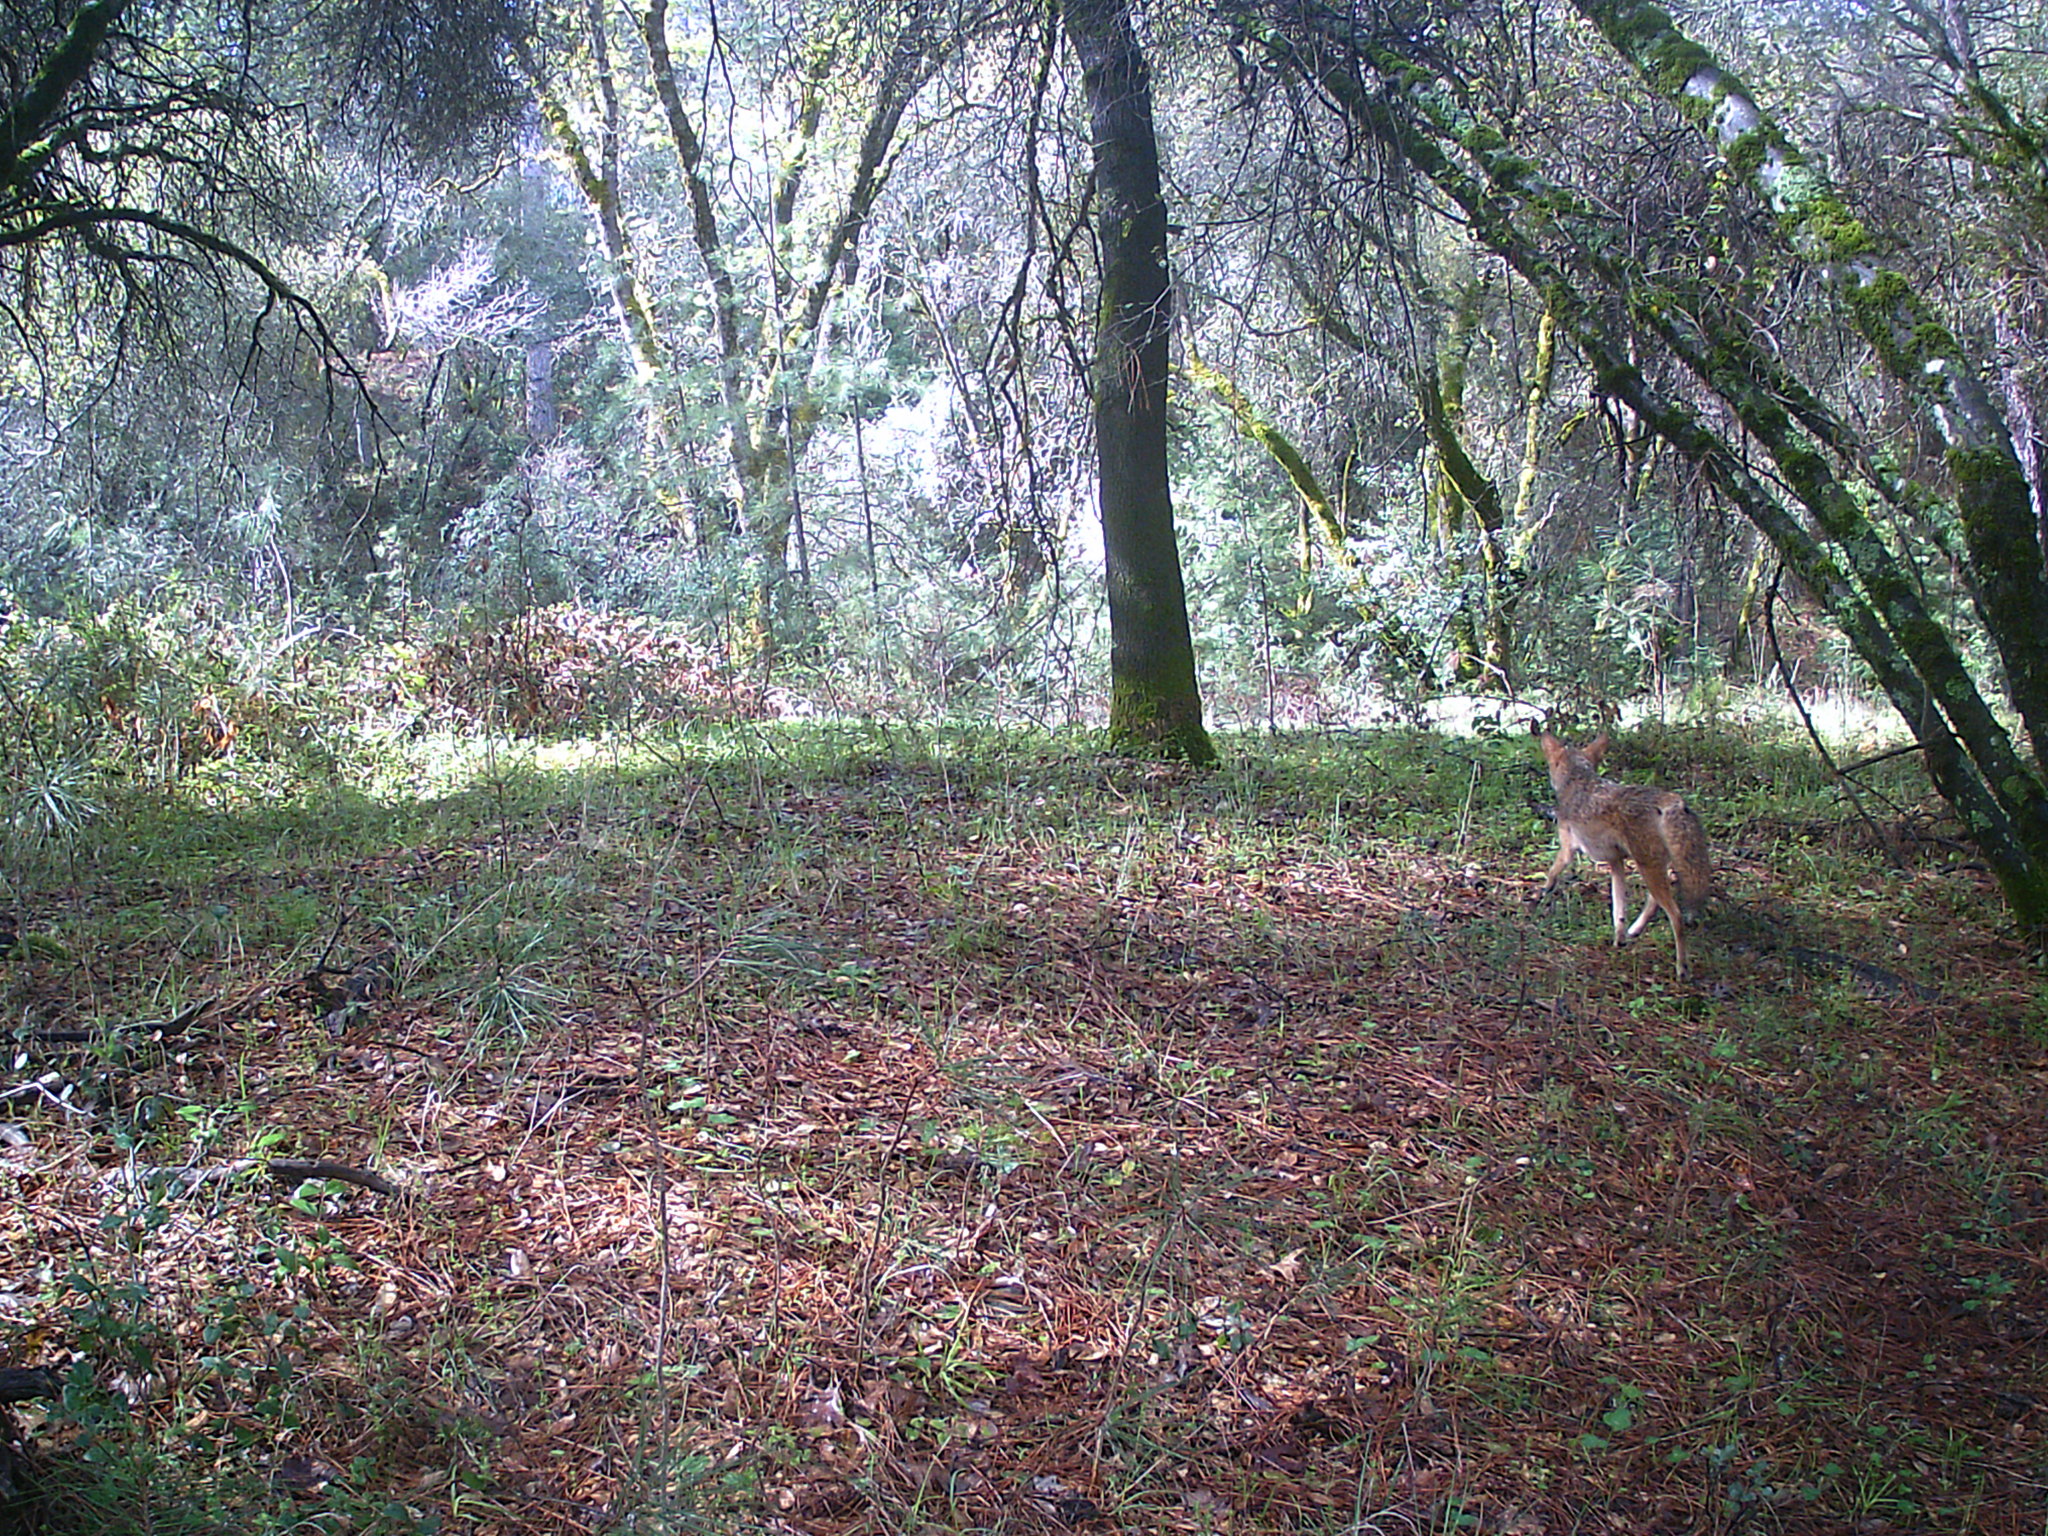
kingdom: Animalia
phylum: Chordata
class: Mammalia
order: Carnivora
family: Canidae
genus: Canis
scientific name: Canis latrans
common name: Coyote
